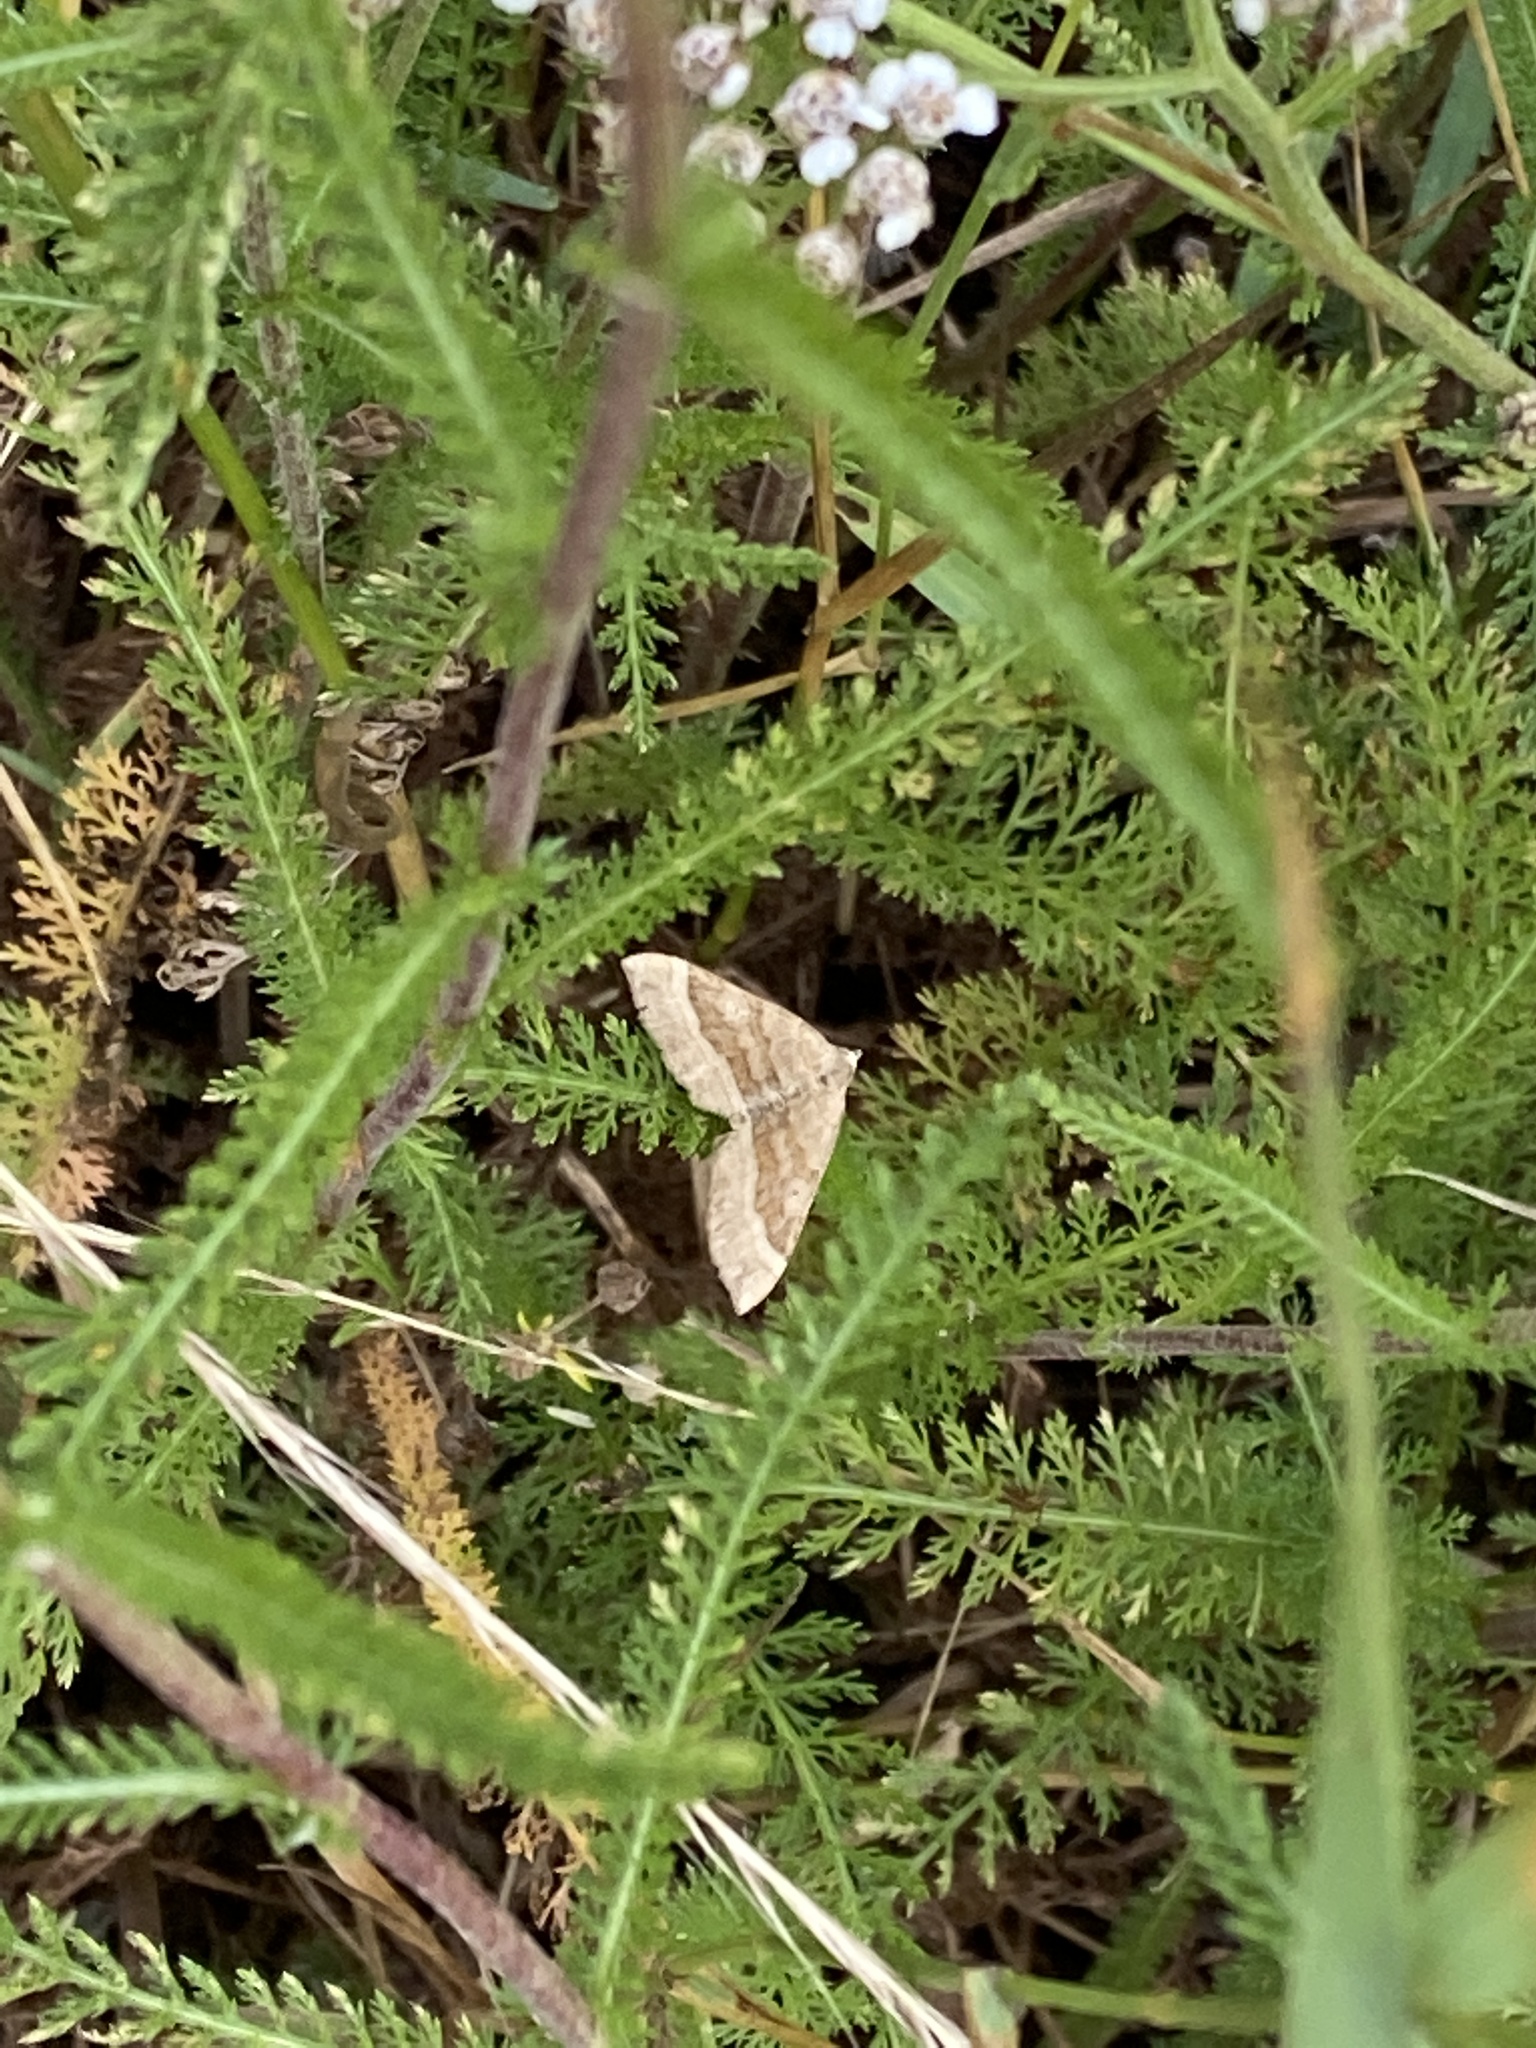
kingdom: Animalia
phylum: Arthropoda
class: Insecta
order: Lepidoptera
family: Geometridae
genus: Scotopteryx
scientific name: Scotopteryx chenopodiata
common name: Shaded broad-bar
